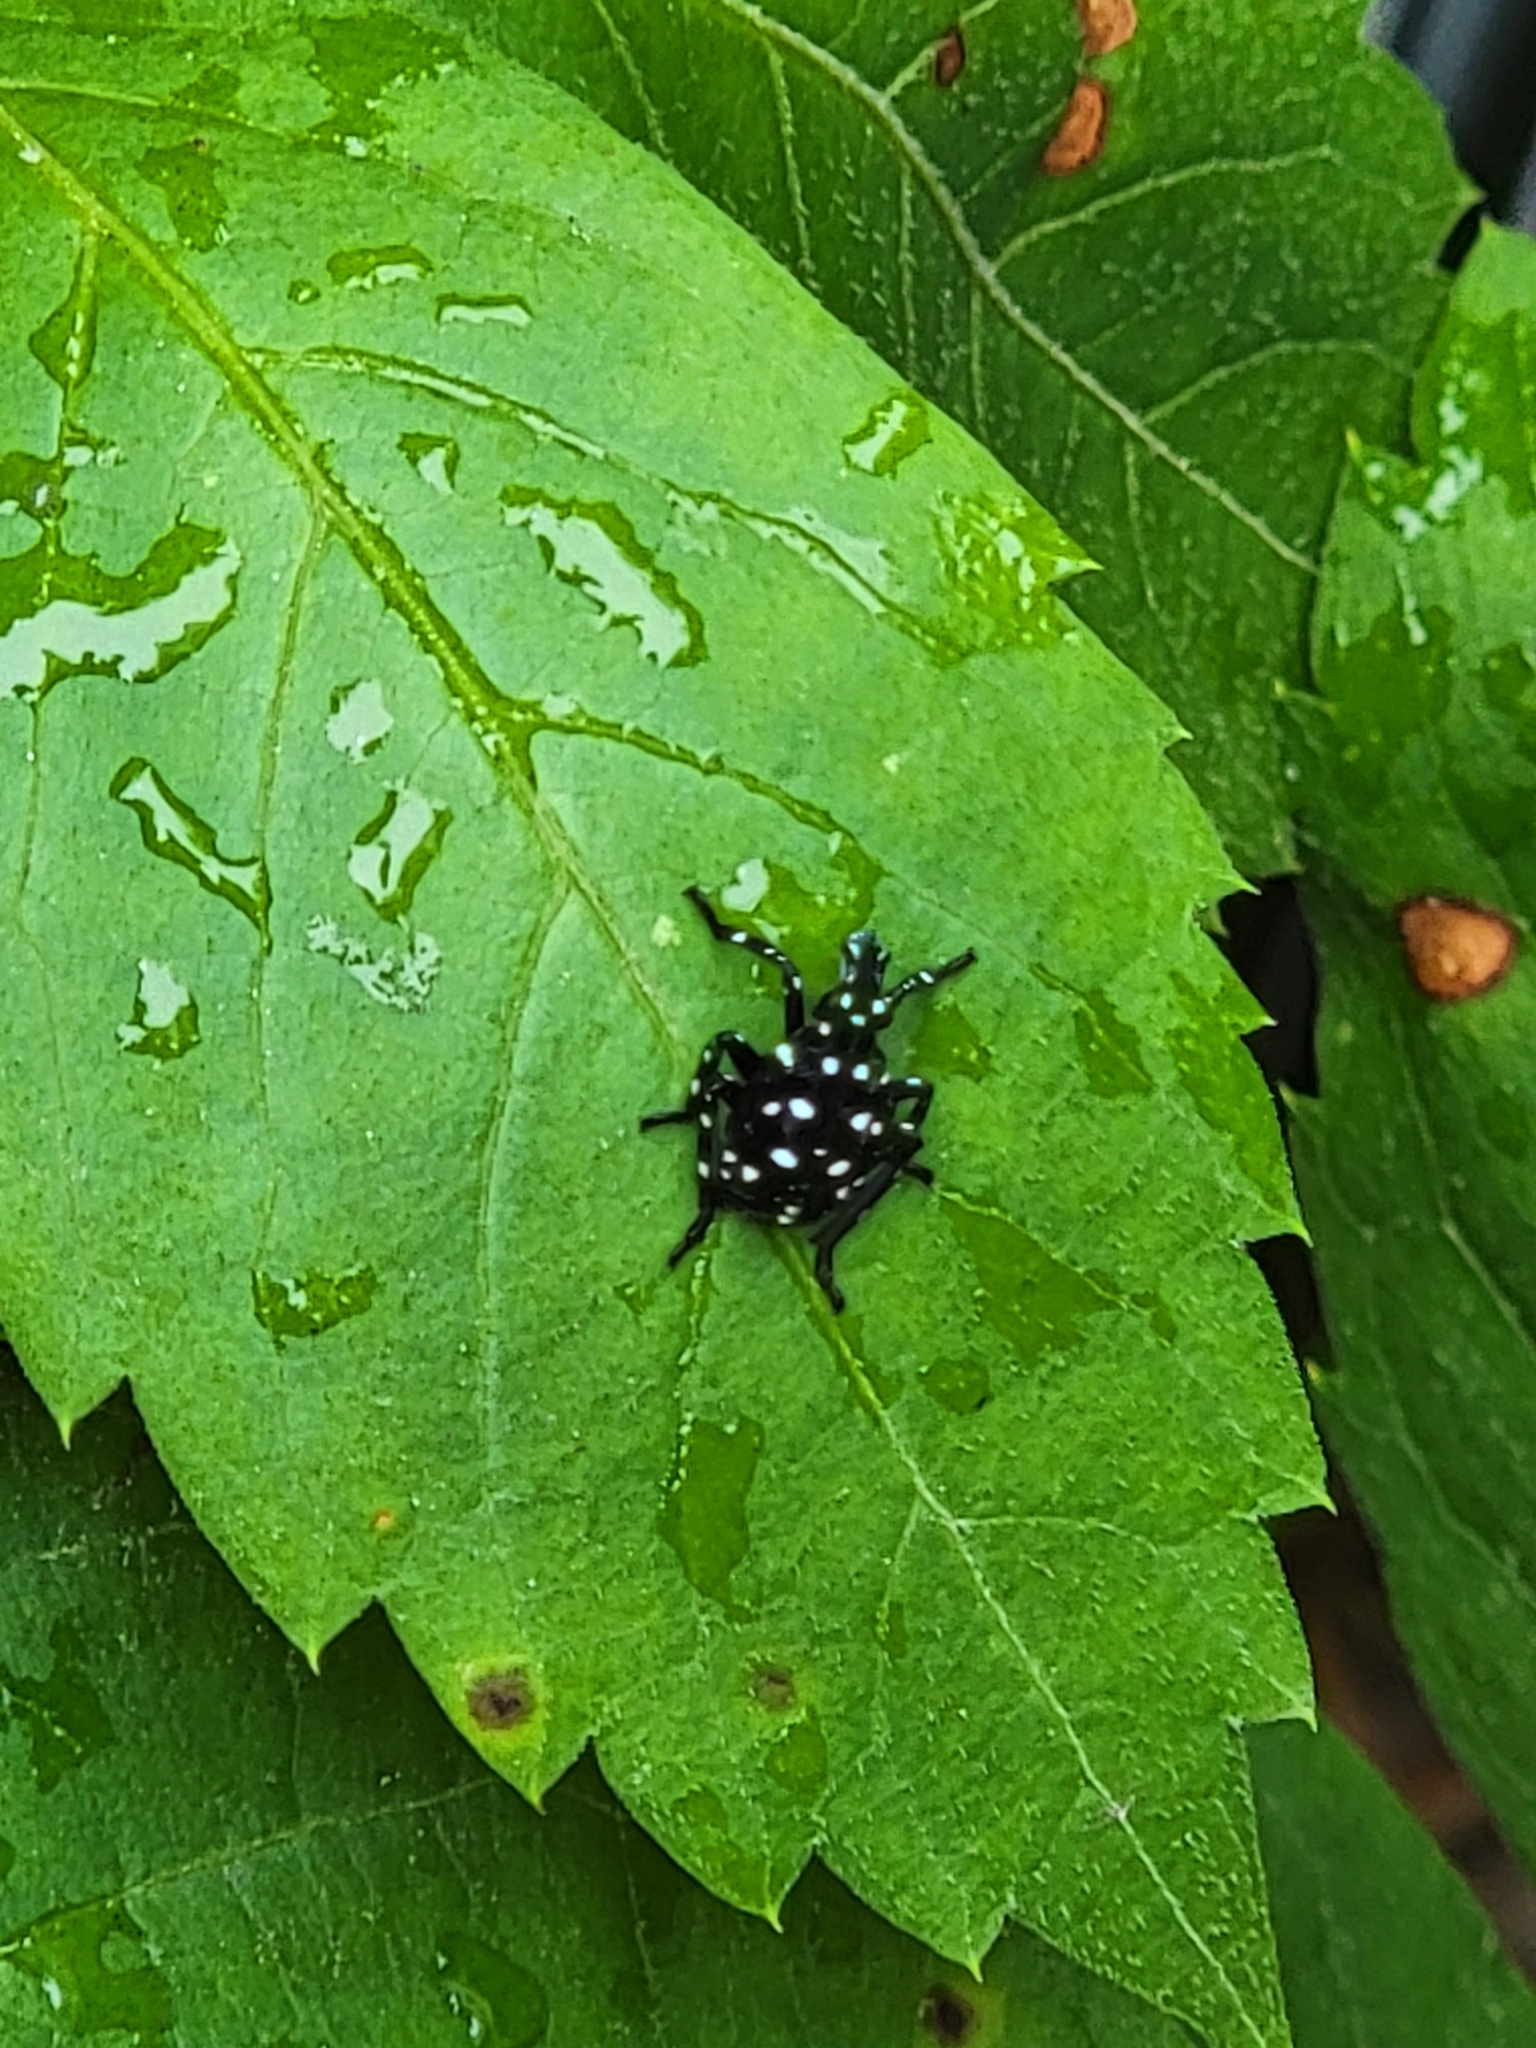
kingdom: Animalia
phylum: Arthropoda
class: Insecta
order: Hemiptera
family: Fulgoridae
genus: Lycorma
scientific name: Lycorma delicatula
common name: Spotted lanternfly
